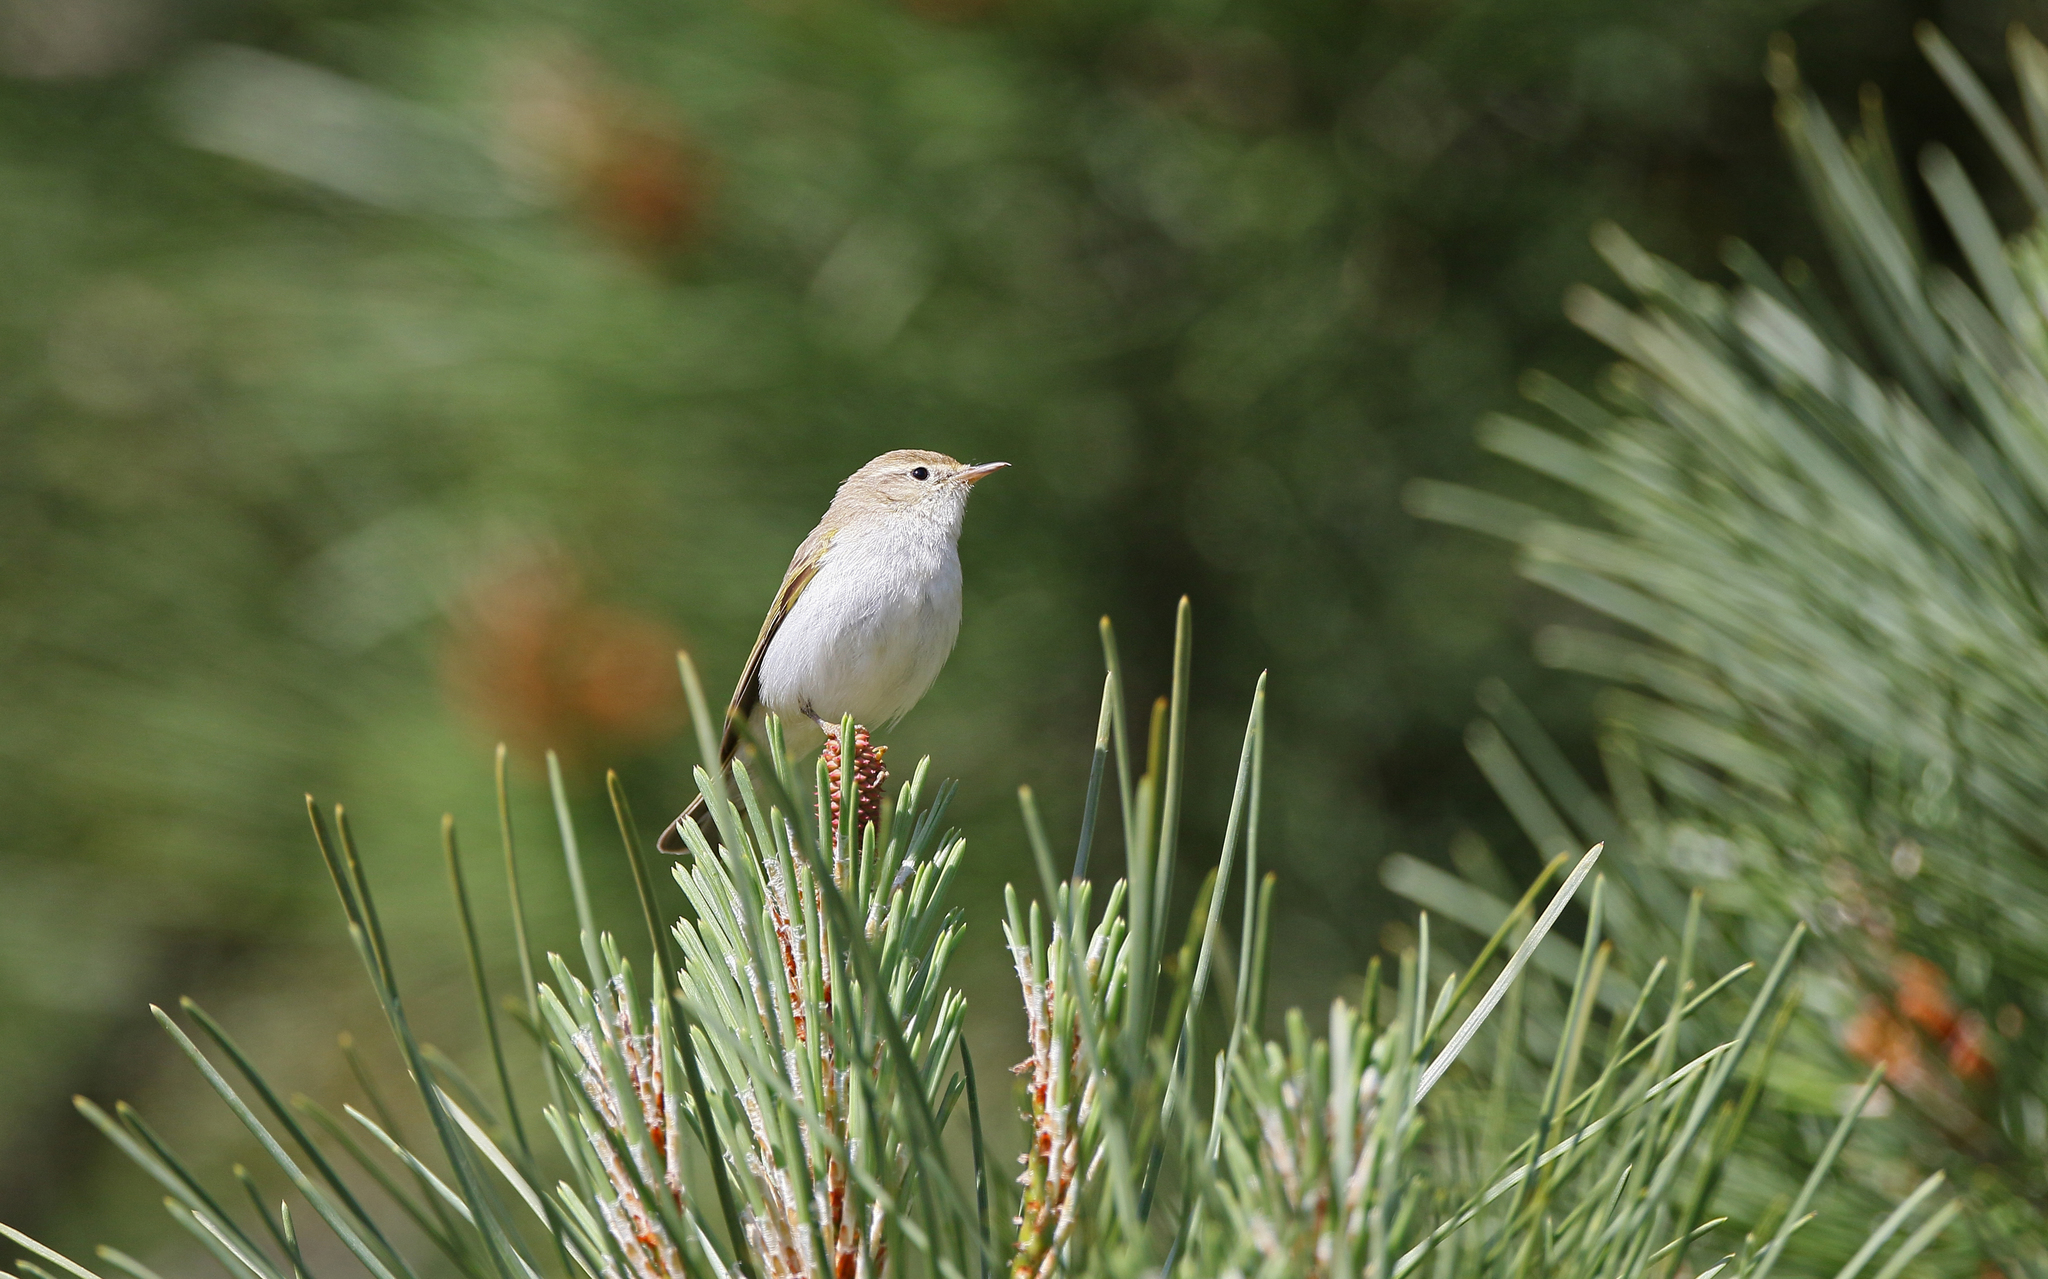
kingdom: Animalia
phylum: Chordata
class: Aves
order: Passeriformes
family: Phylloscopidae
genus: Phylloscopus
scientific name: Phylloscopus bonelli
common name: Western bonelli's warbler
